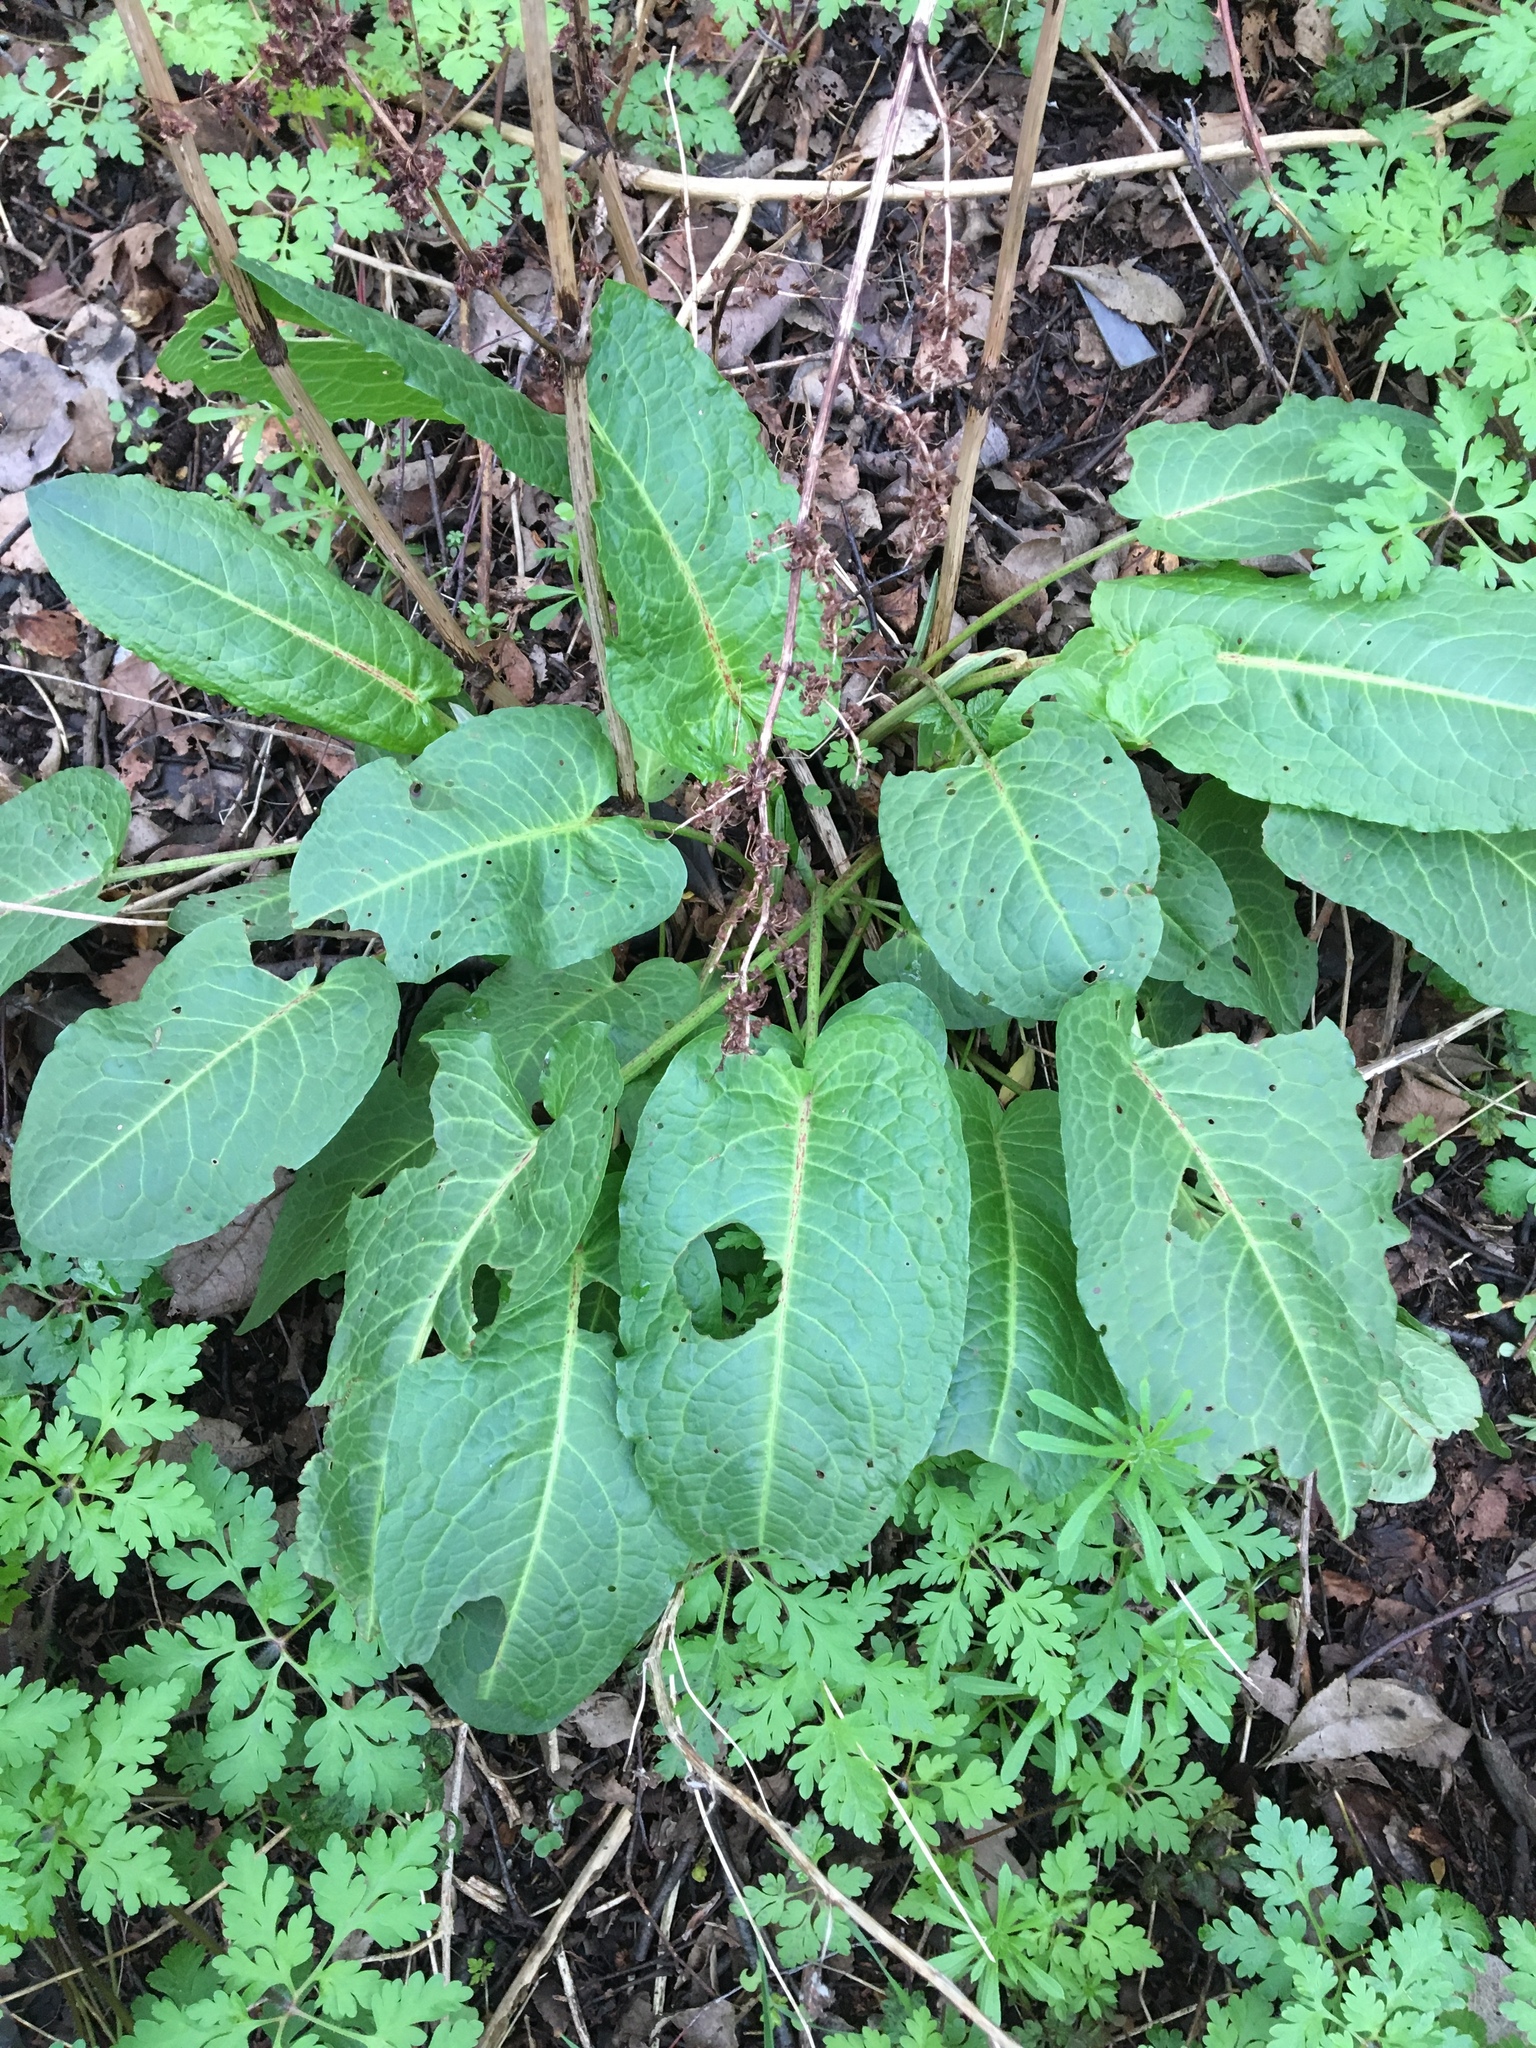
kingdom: Plantae
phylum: Tracheophyta
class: Magnoliopsida
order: Caryophyllales
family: Polygonaceae
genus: Rumex
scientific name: Rumex obtusifolius
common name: Bitter dock
